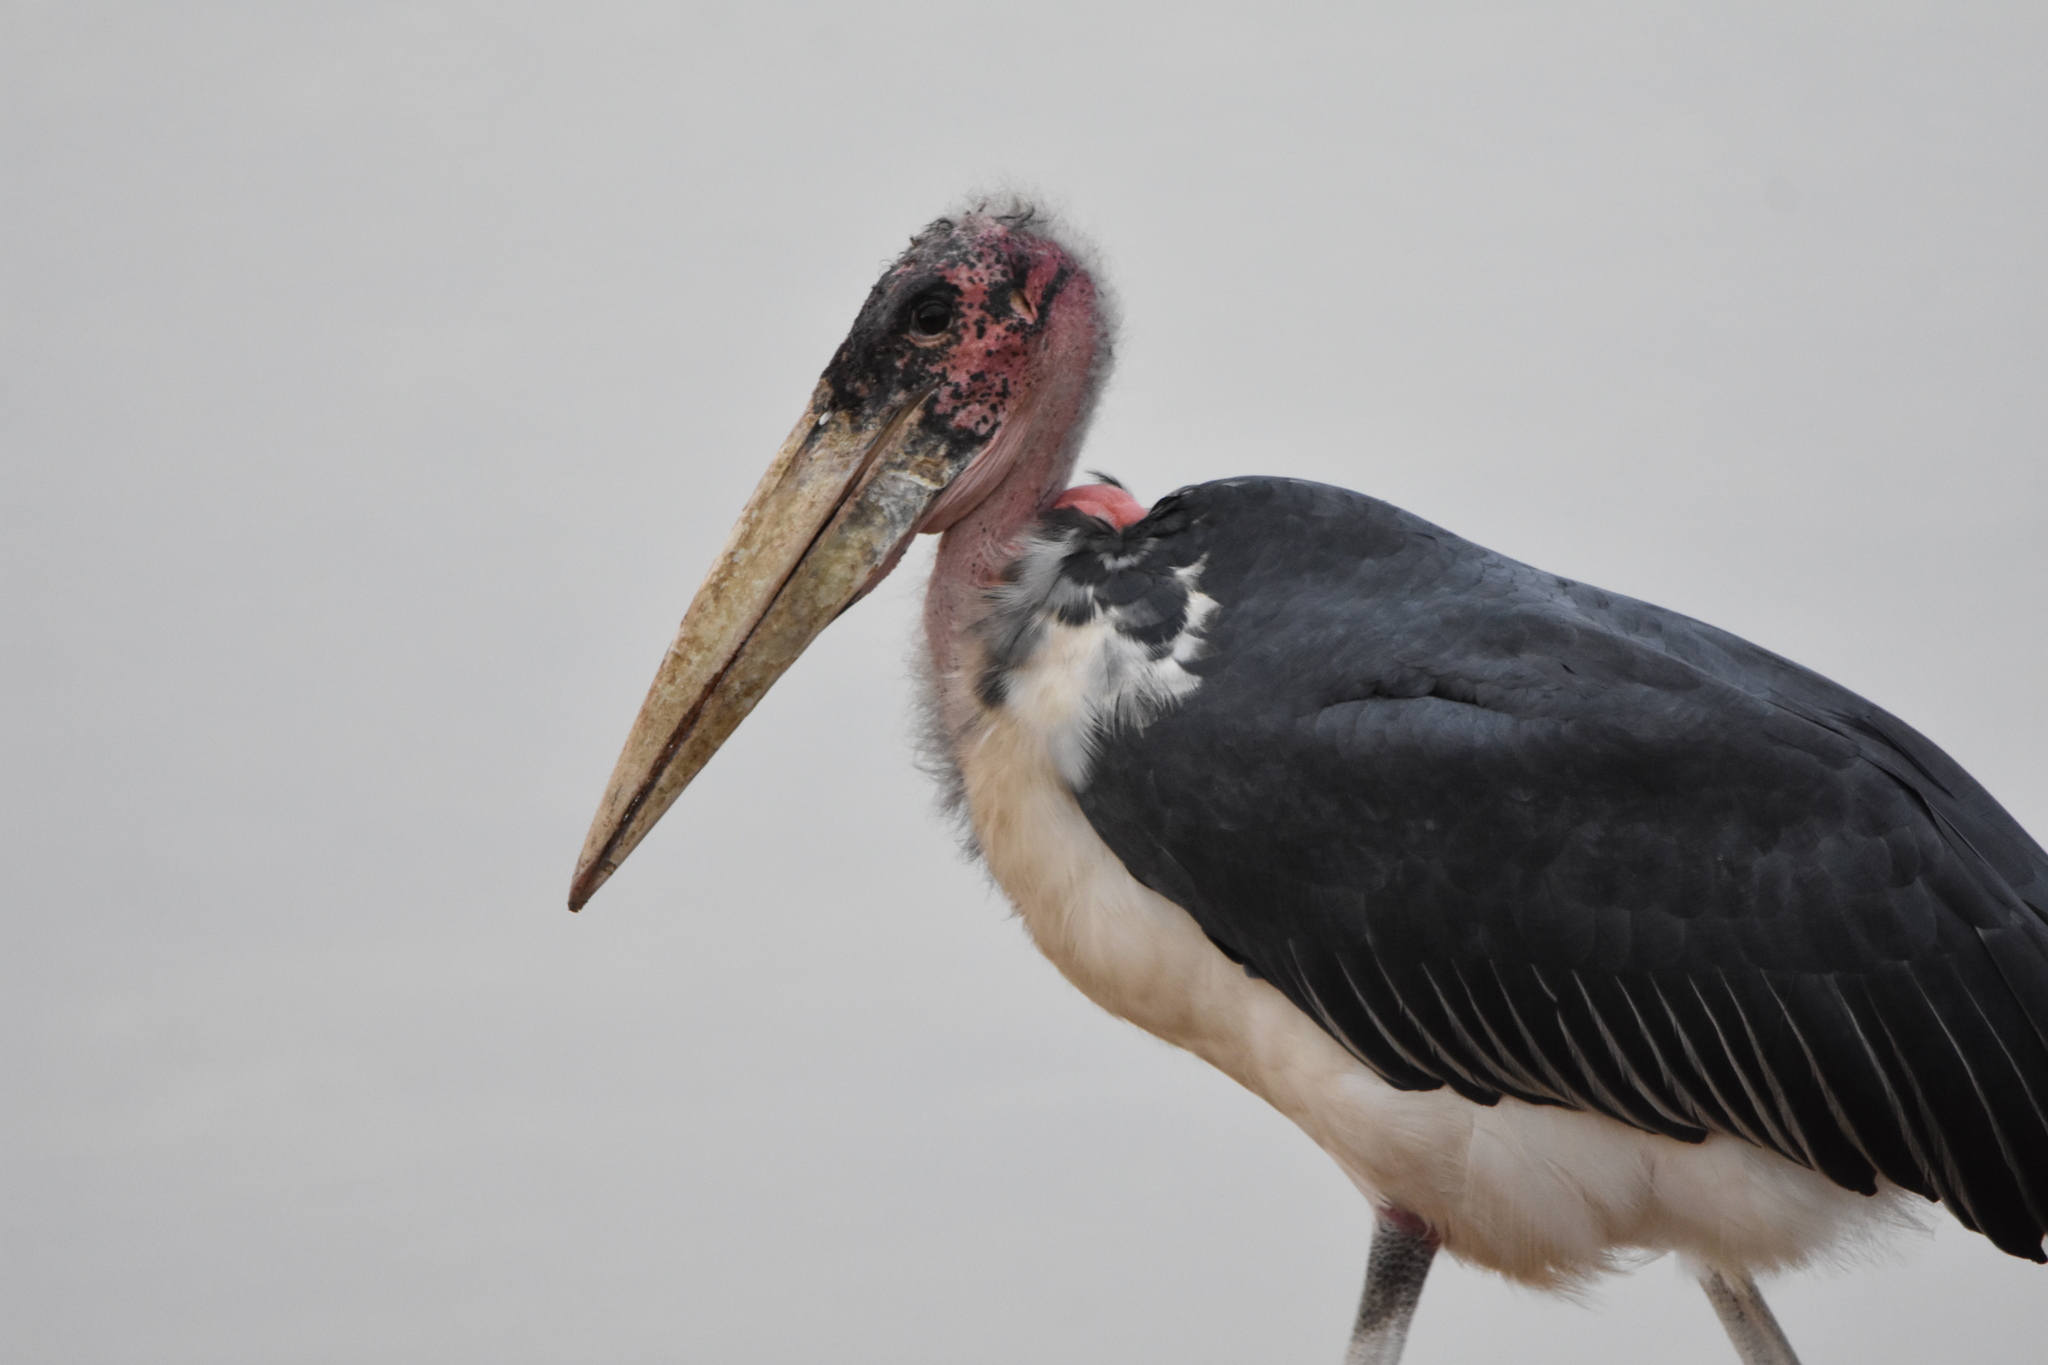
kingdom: Animalia
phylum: Chordata
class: Aves
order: Ciconiiformes
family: Ciconiidae
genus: Leptoptilos
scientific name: Leptoptilos crumenifer
